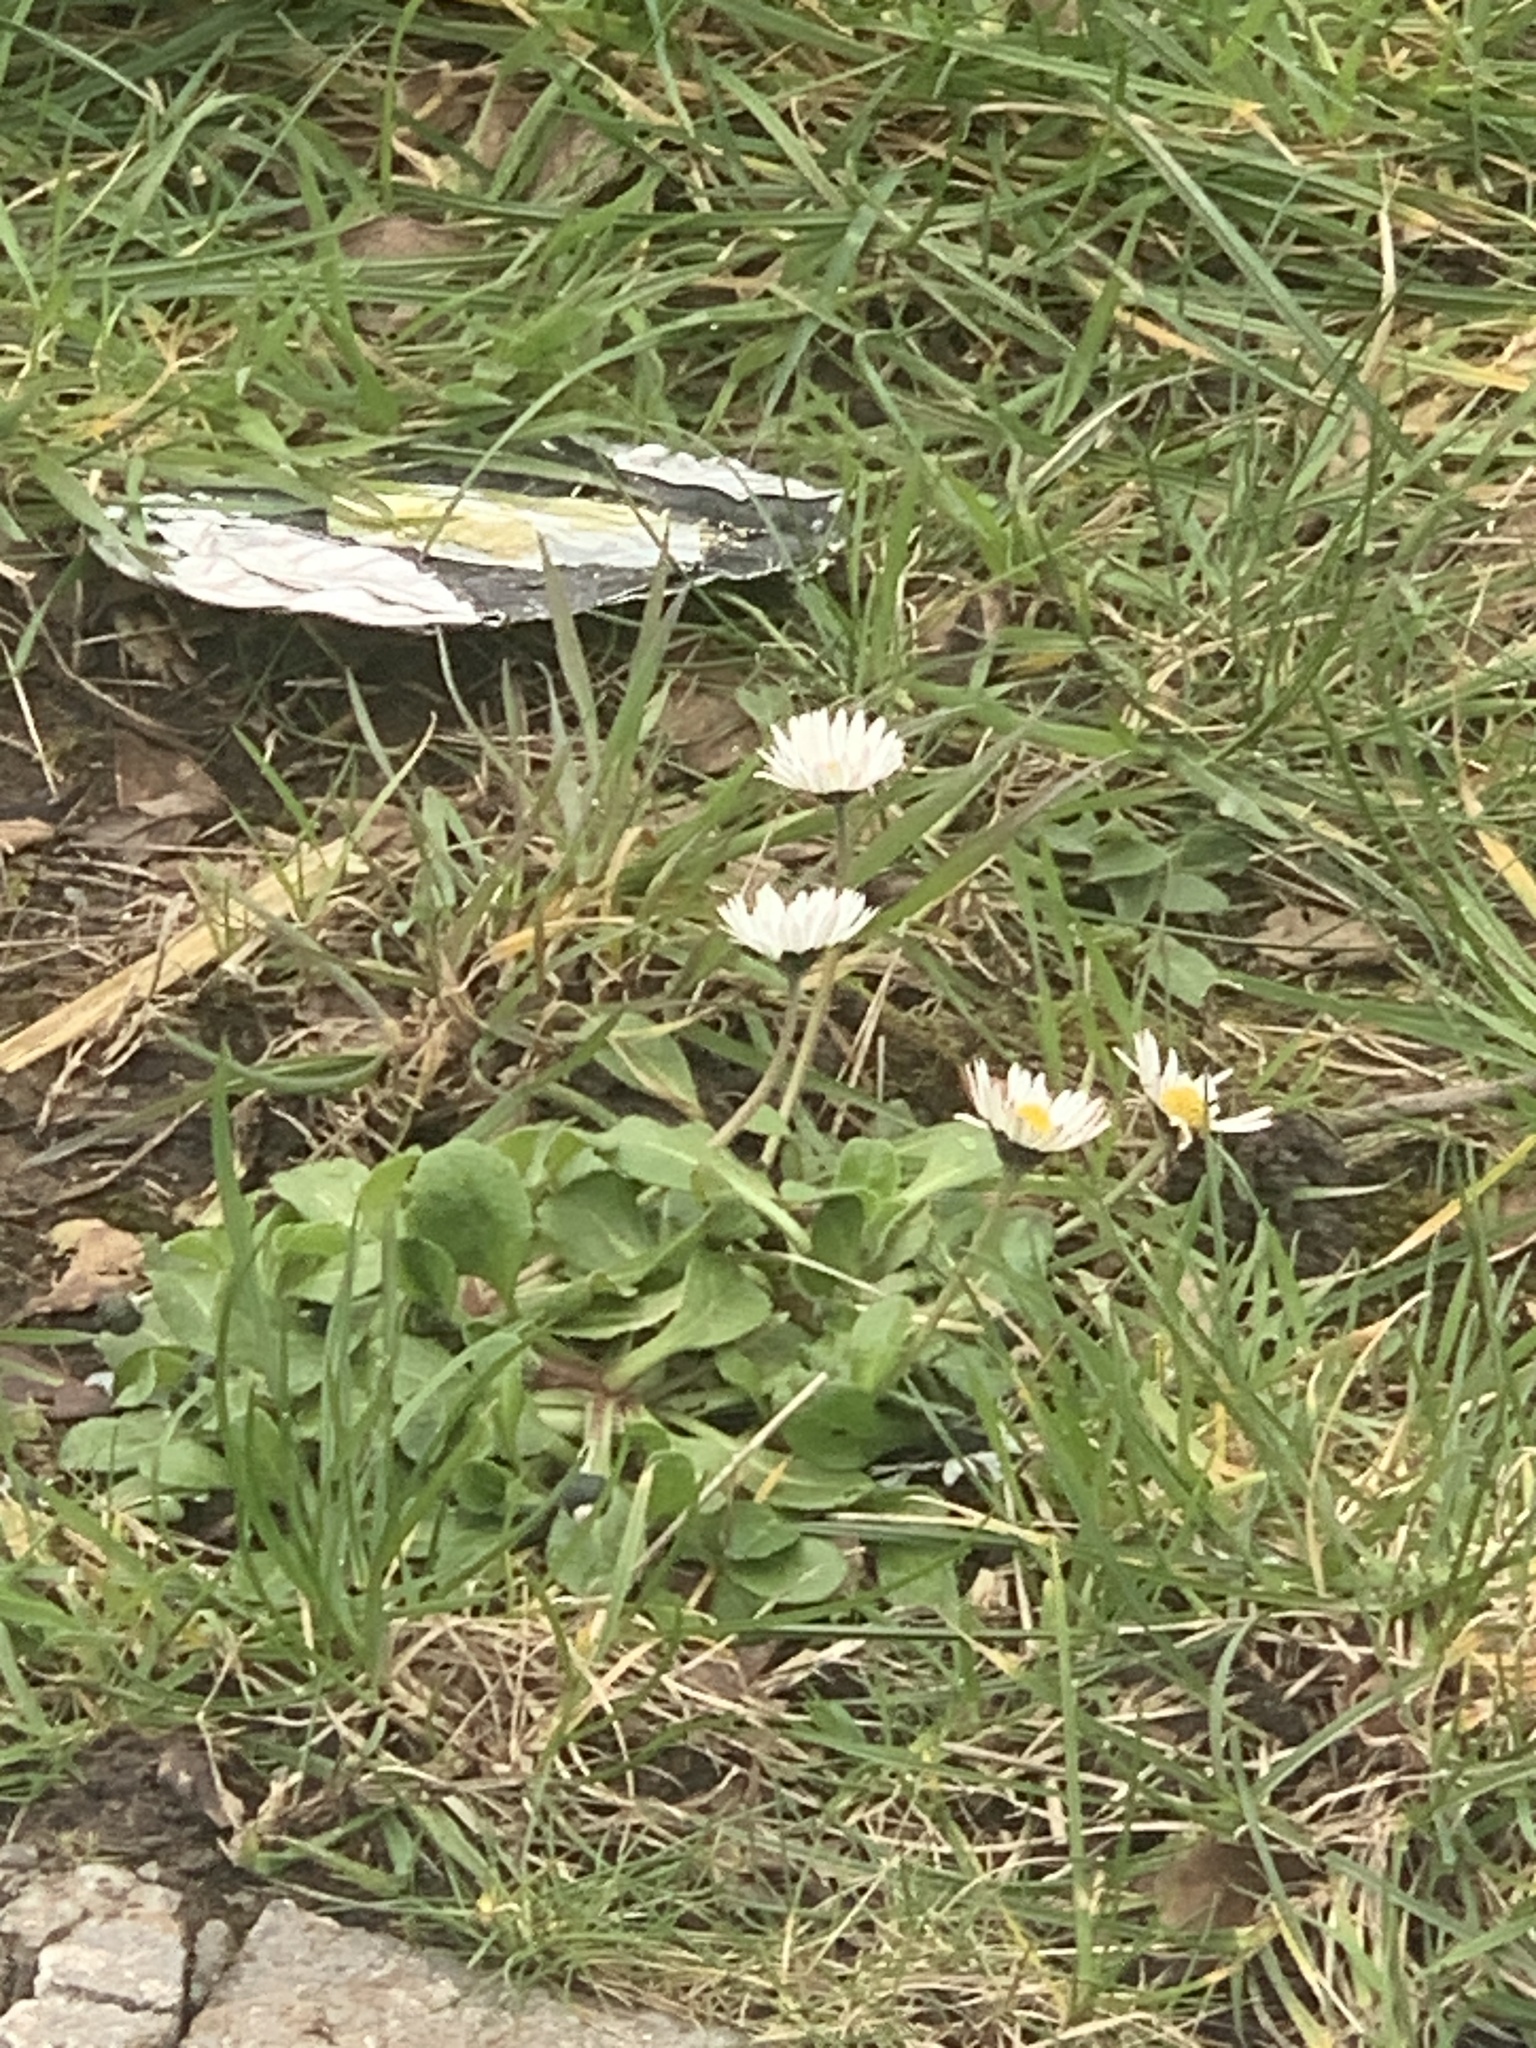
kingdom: Plantae
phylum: Tracheophyta
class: Magnoliopsida
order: Asterales
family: Asteraceae
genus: Bellis
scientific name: Bellis perennis
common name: Lawndaisy
